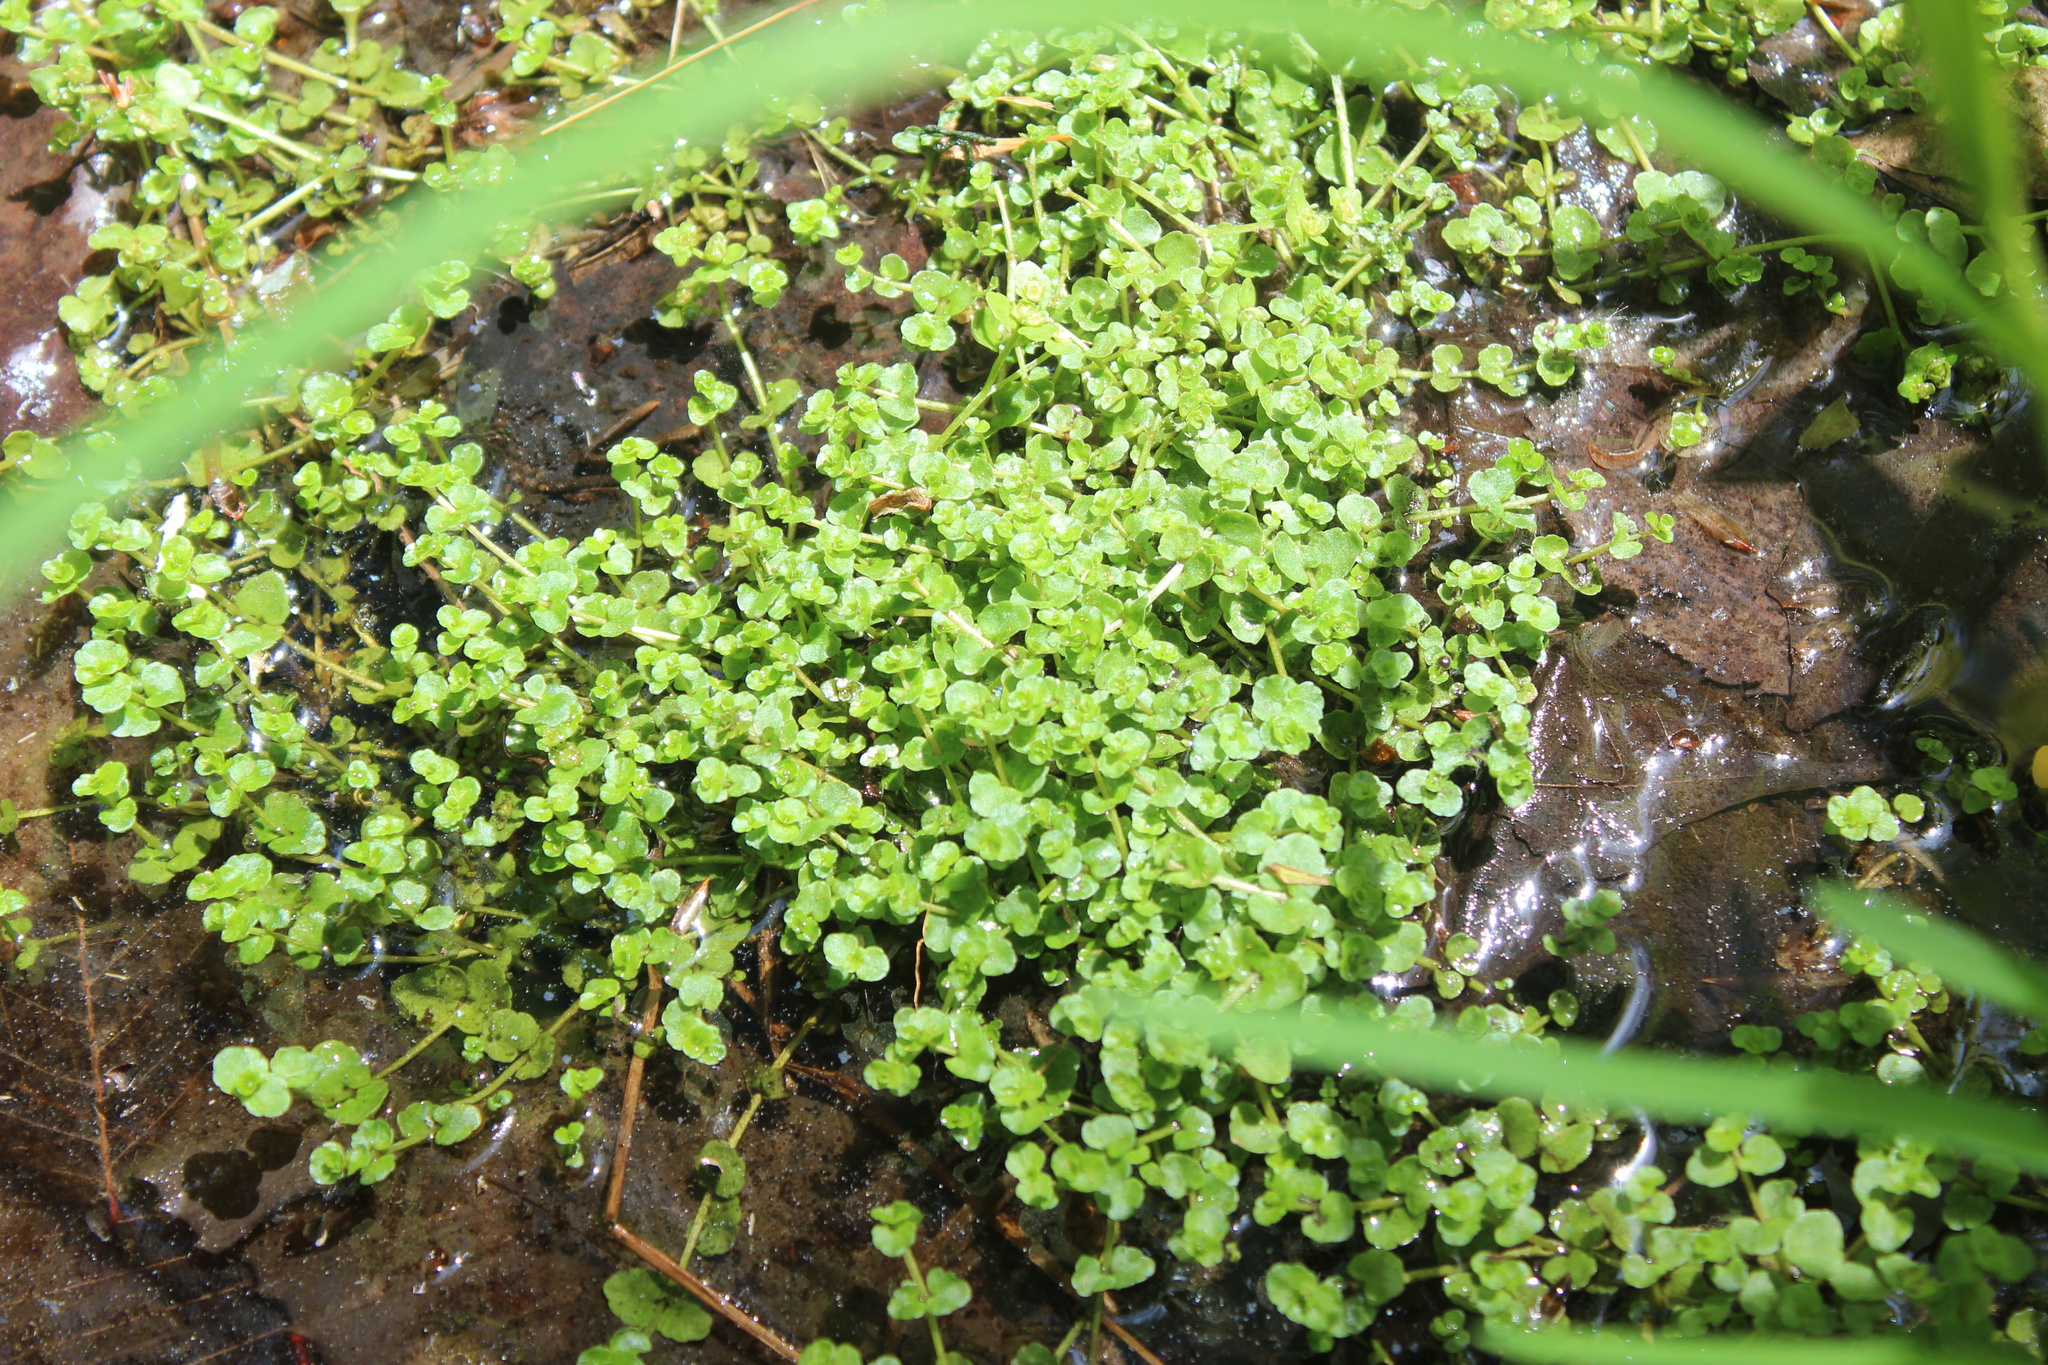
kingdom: Plantae
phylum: Tracheophyta
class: Magnoliopsida
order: Saxifragales
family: Saxifragaceae
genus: Chrysosplenium
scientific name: Chrysosplenium americanum
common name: American golden-saxifrage
